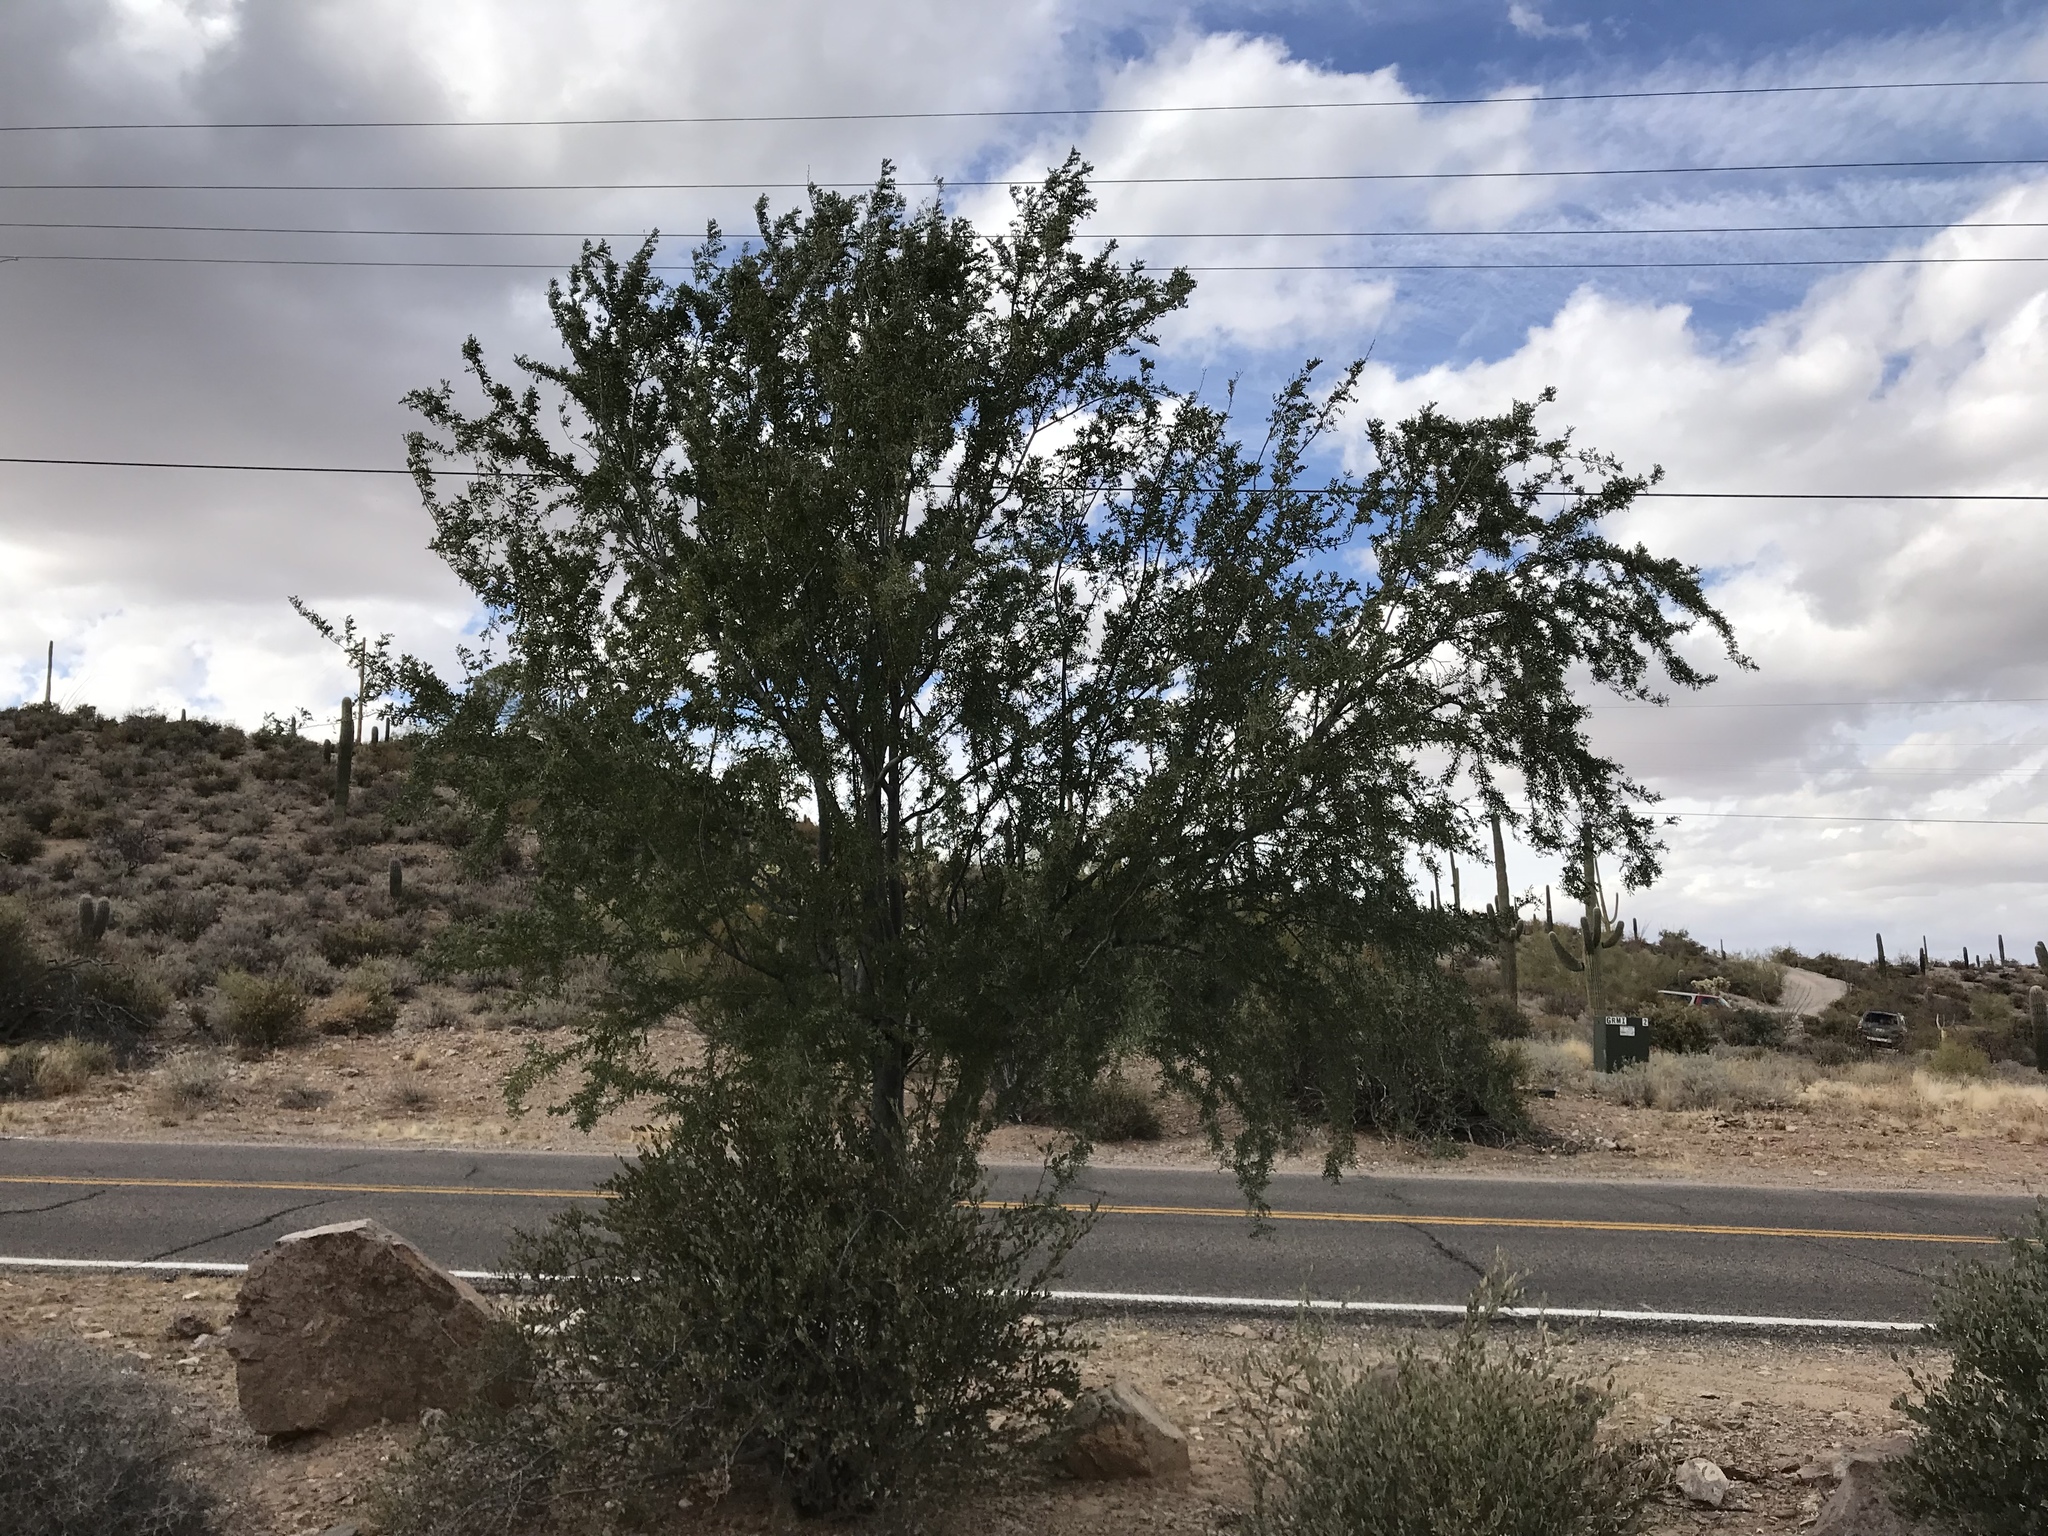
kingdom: Plantae
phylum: Tracheophyta
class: Magnoliopsida
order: Fabales
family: Fabaceae
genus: Olneya
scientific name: Olneya tesota
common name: Desert ironwood
